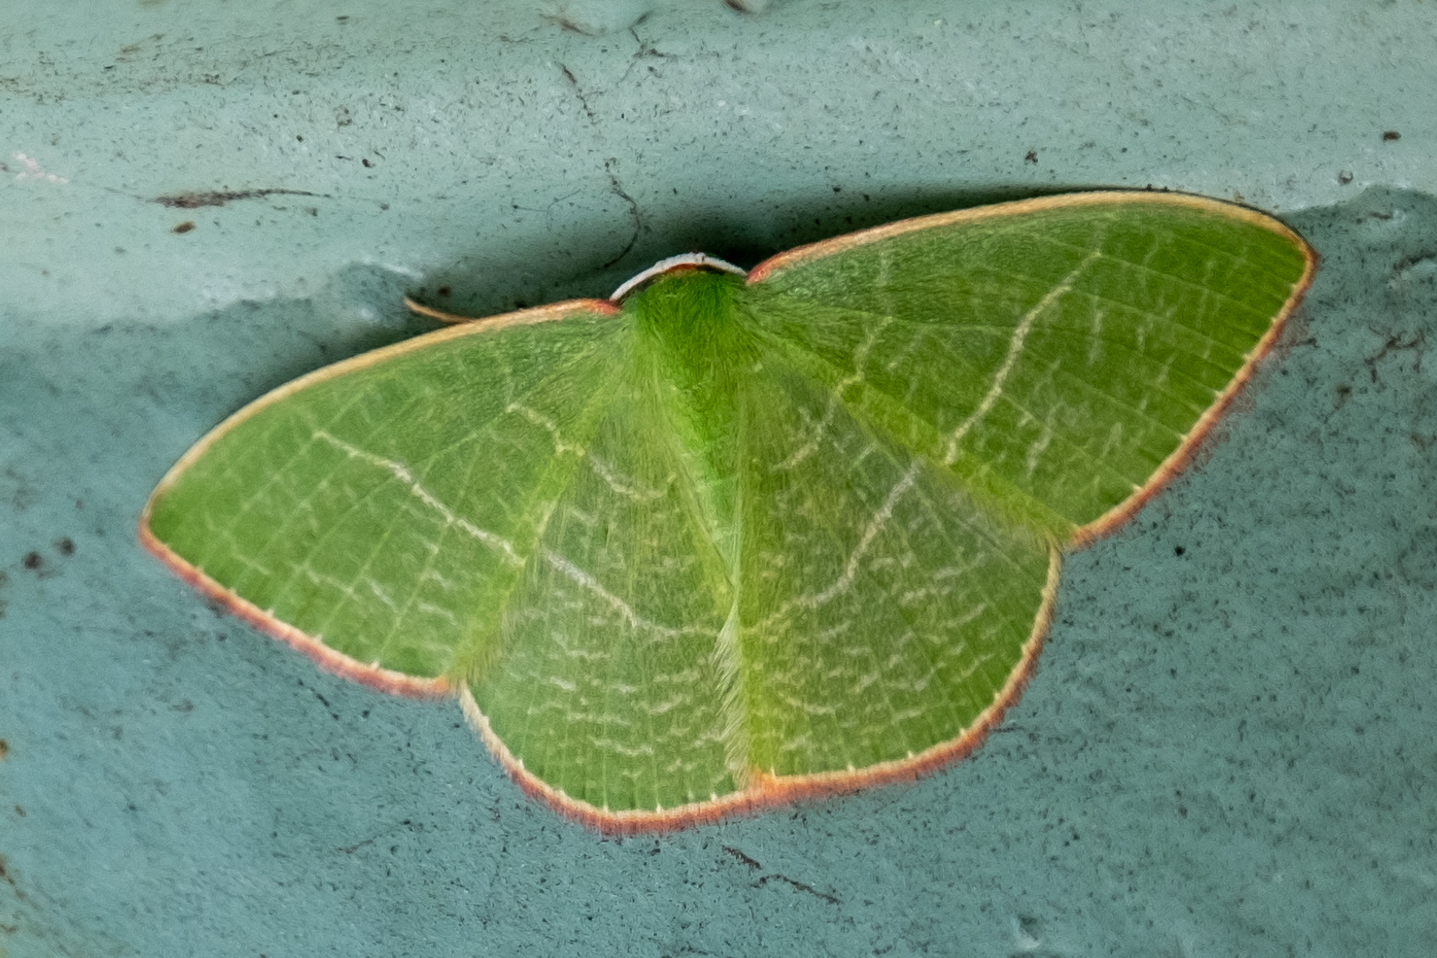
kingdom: Animalia
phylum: Arthropoda
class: Insecta
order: Lepidoptera
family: Geometridae
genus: Nemoria
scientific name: Nemoria leptalea
